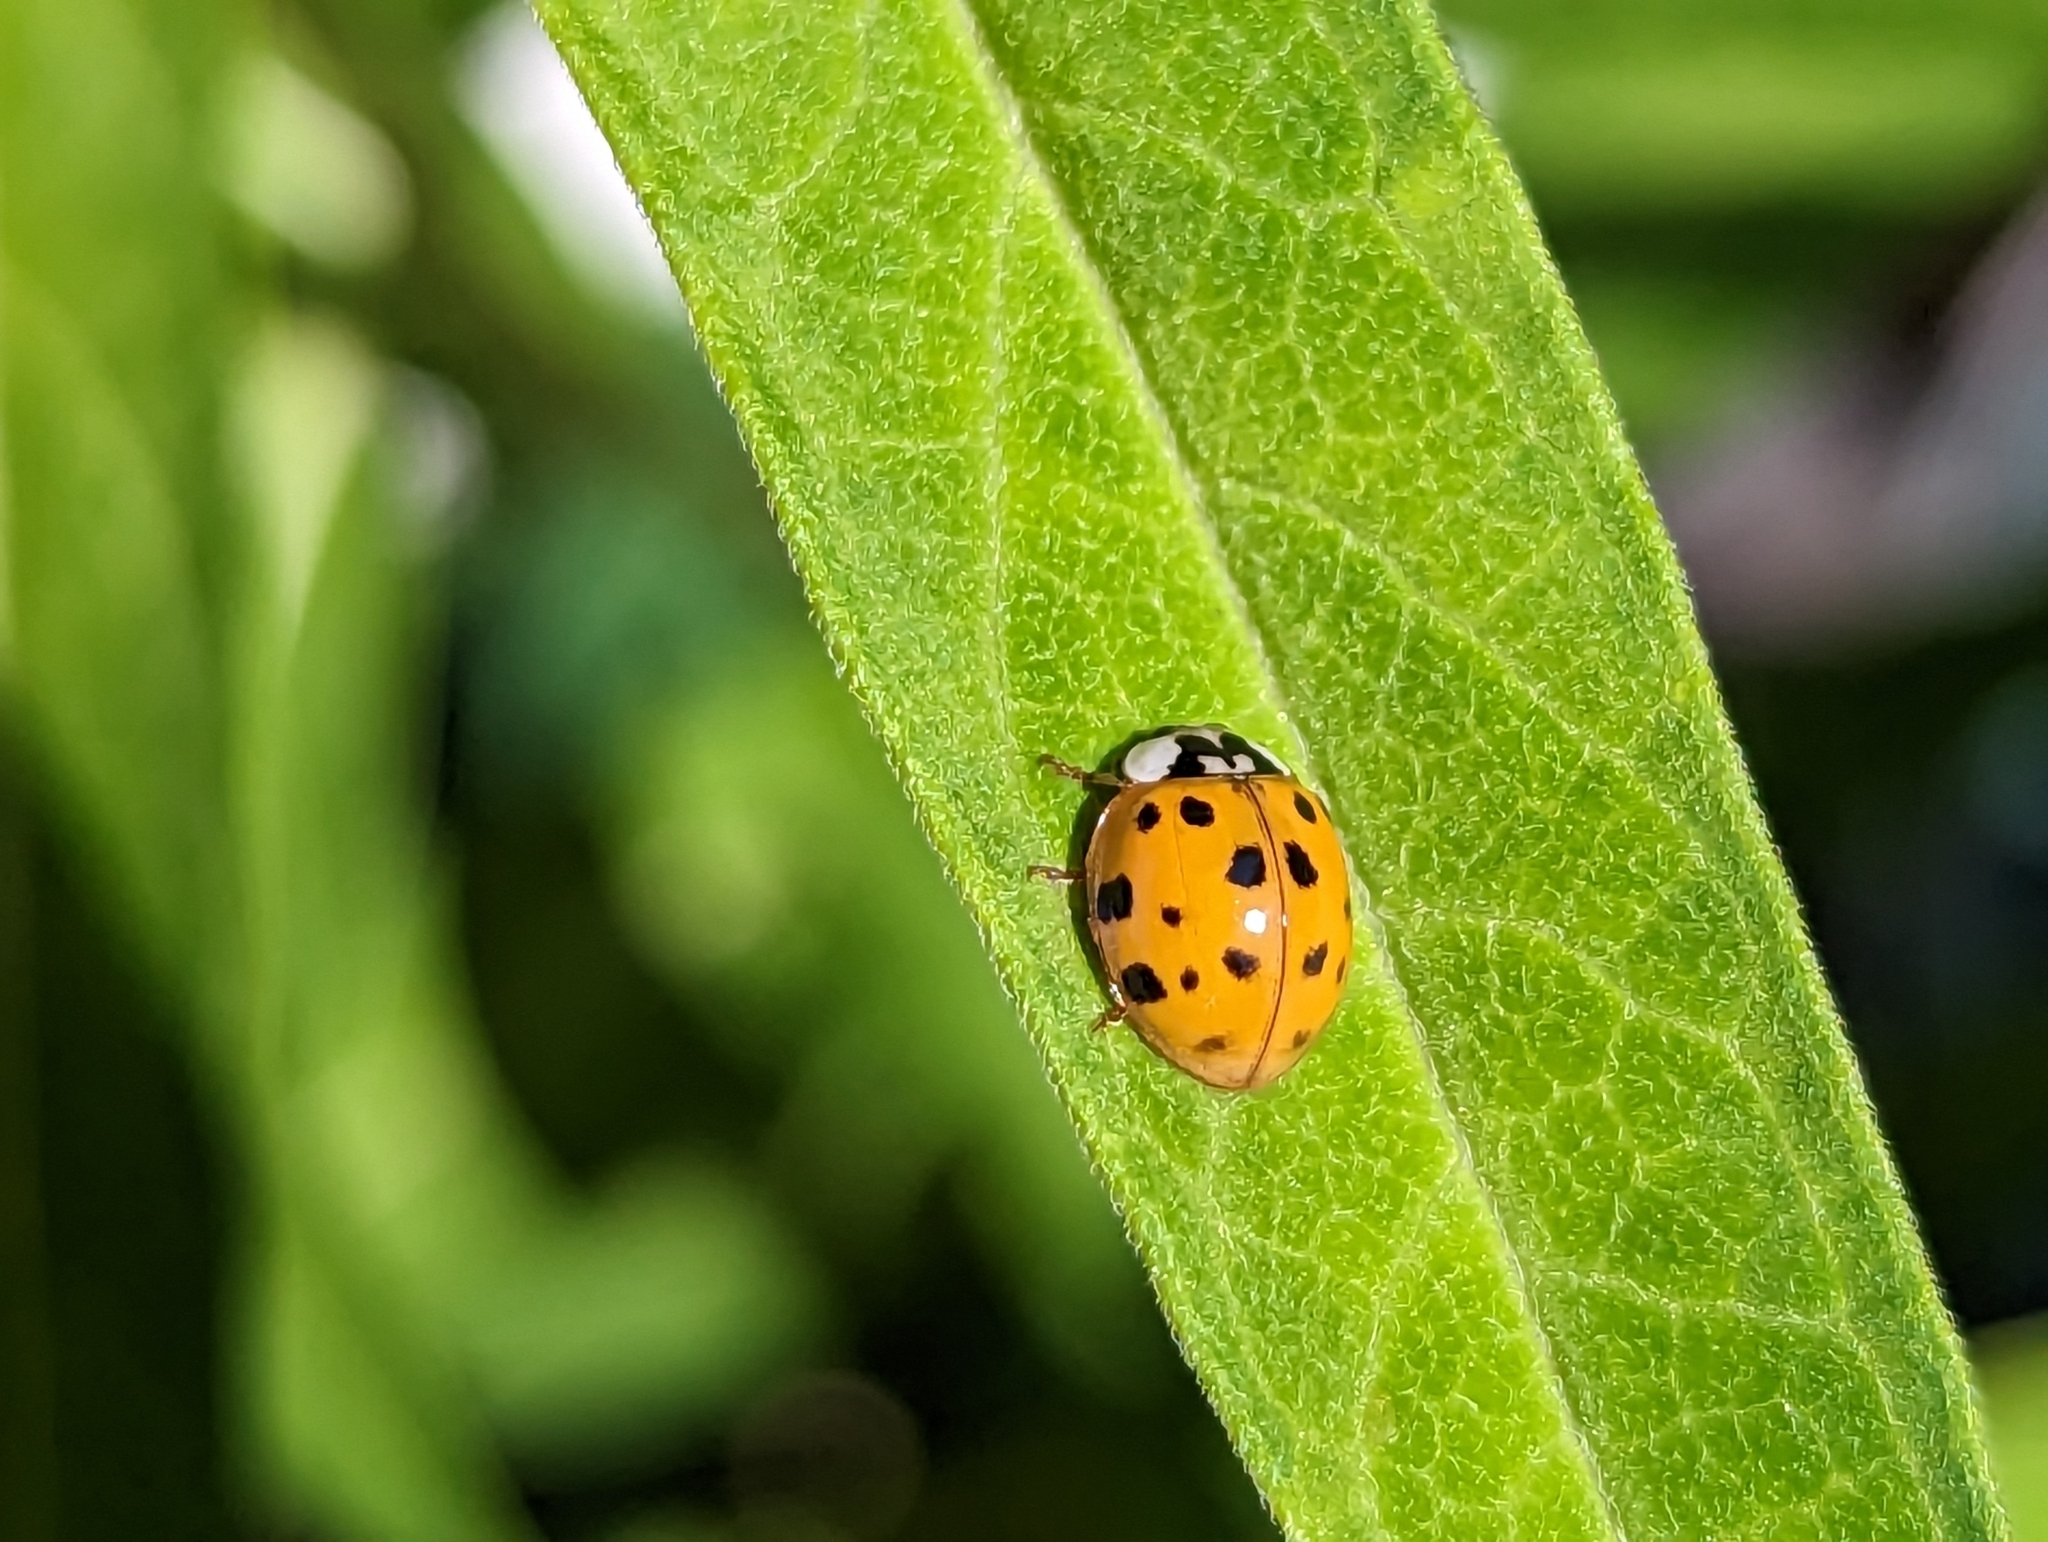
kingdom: Animalia
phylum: Arthropoda
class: Insecta
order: Coleoptera
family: Coccinellidae
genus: Harmonia
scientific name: Harmonia axyridis
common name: Harlequin ladybird
